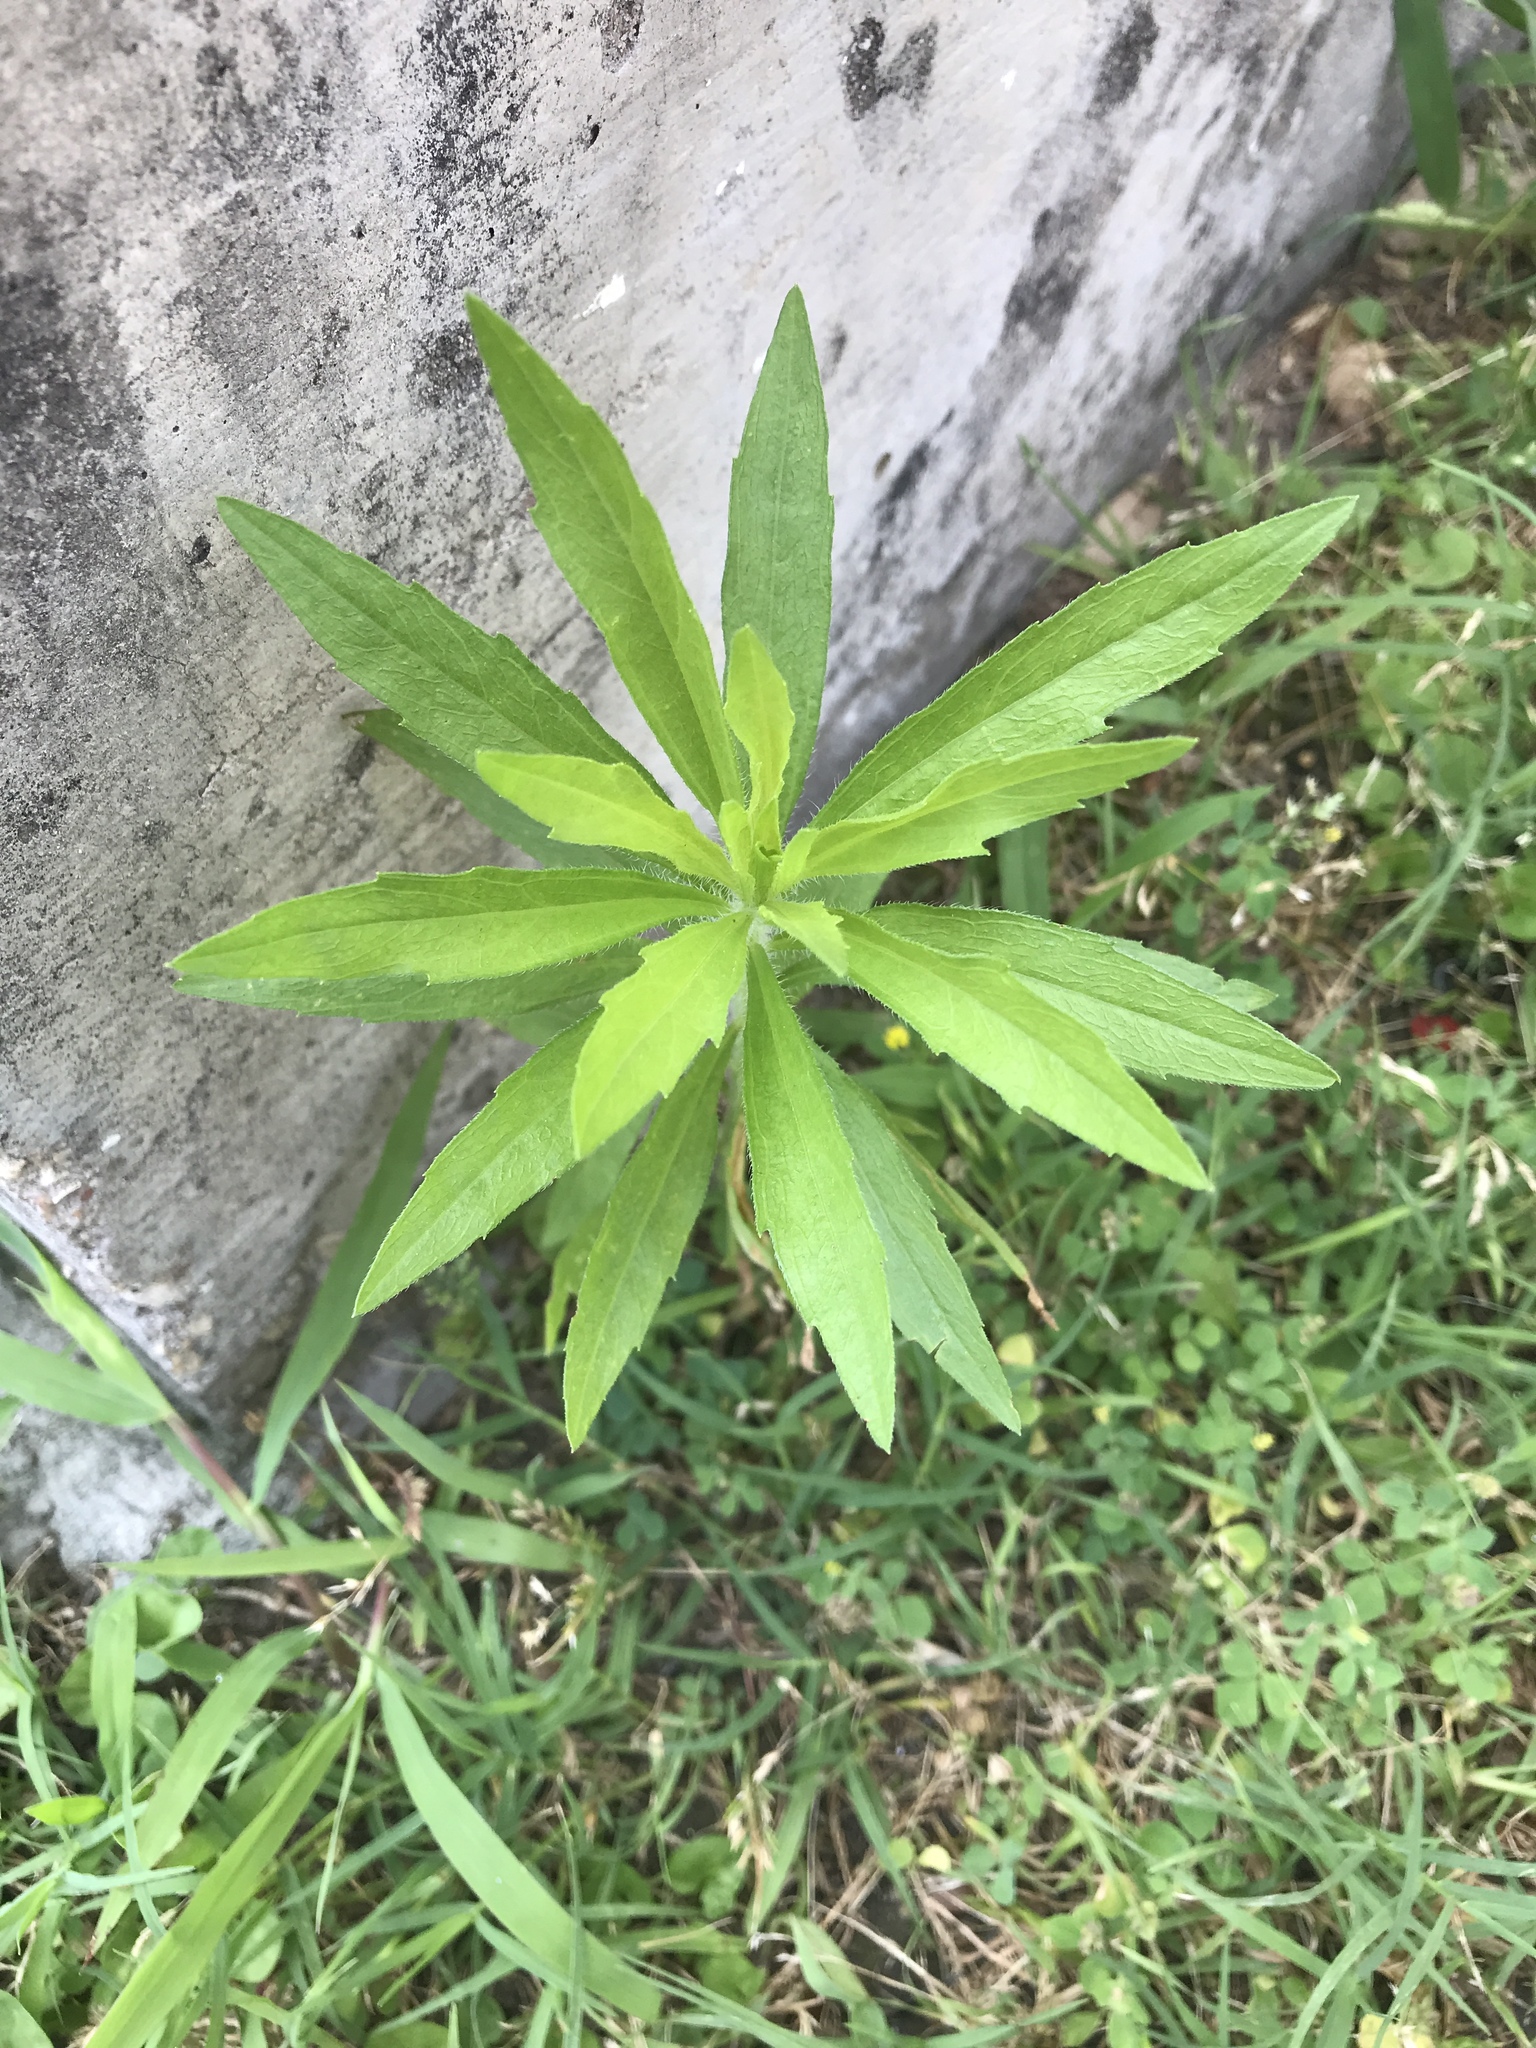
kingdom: Plantae
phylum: Tracheophyta
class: Magnoliopsida
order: Asterales
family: Asteraceae
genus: Erigeron
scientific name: Erigeron canadensis
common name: Canadian fleabane
